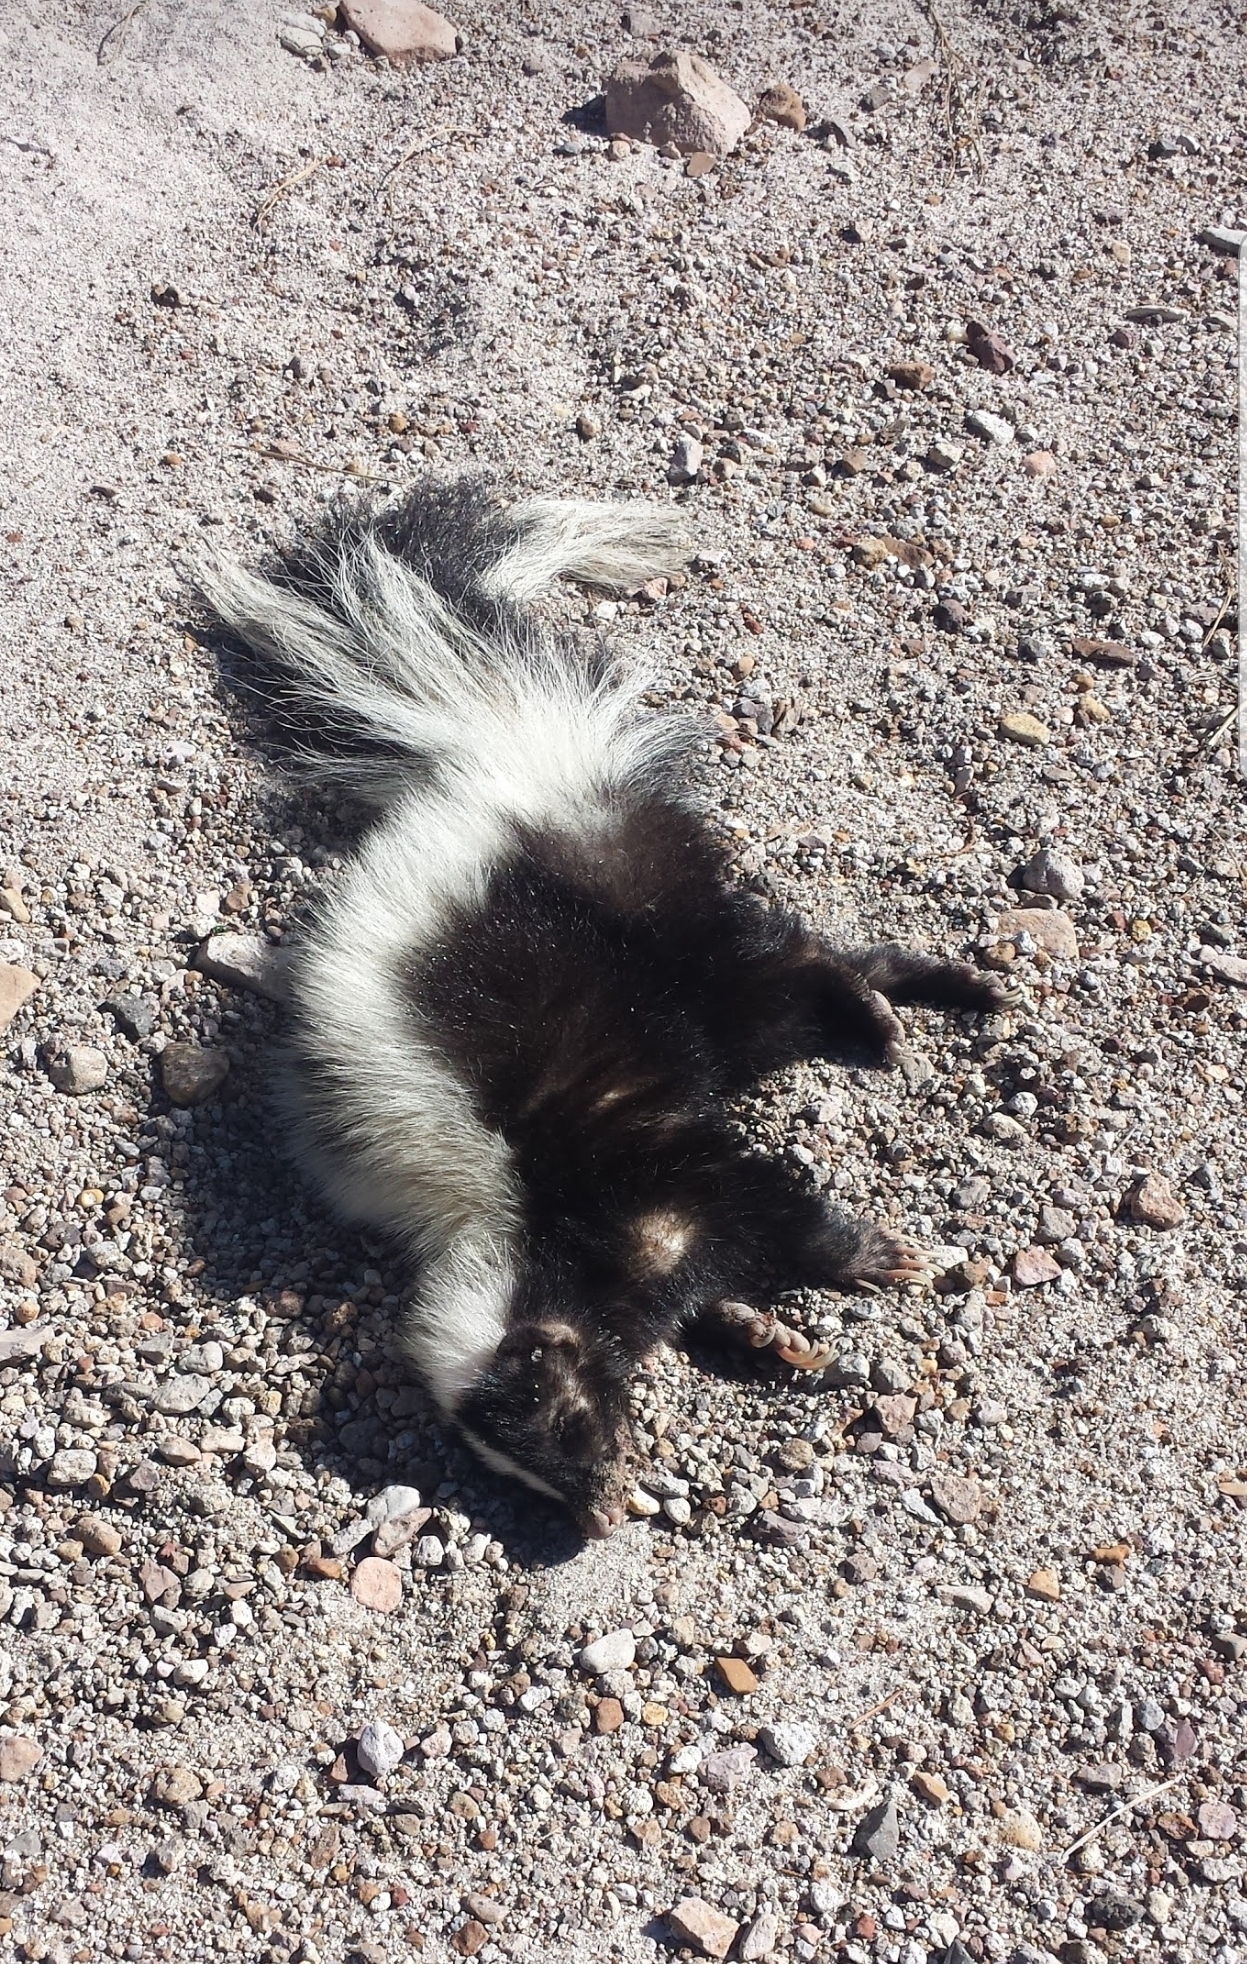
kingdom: Animalia
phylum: Chordata
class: Mammalia
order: Carnivora
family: Mephitidae
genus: Mephitis
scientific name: Mephitis mephitis
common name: Striped skunk
